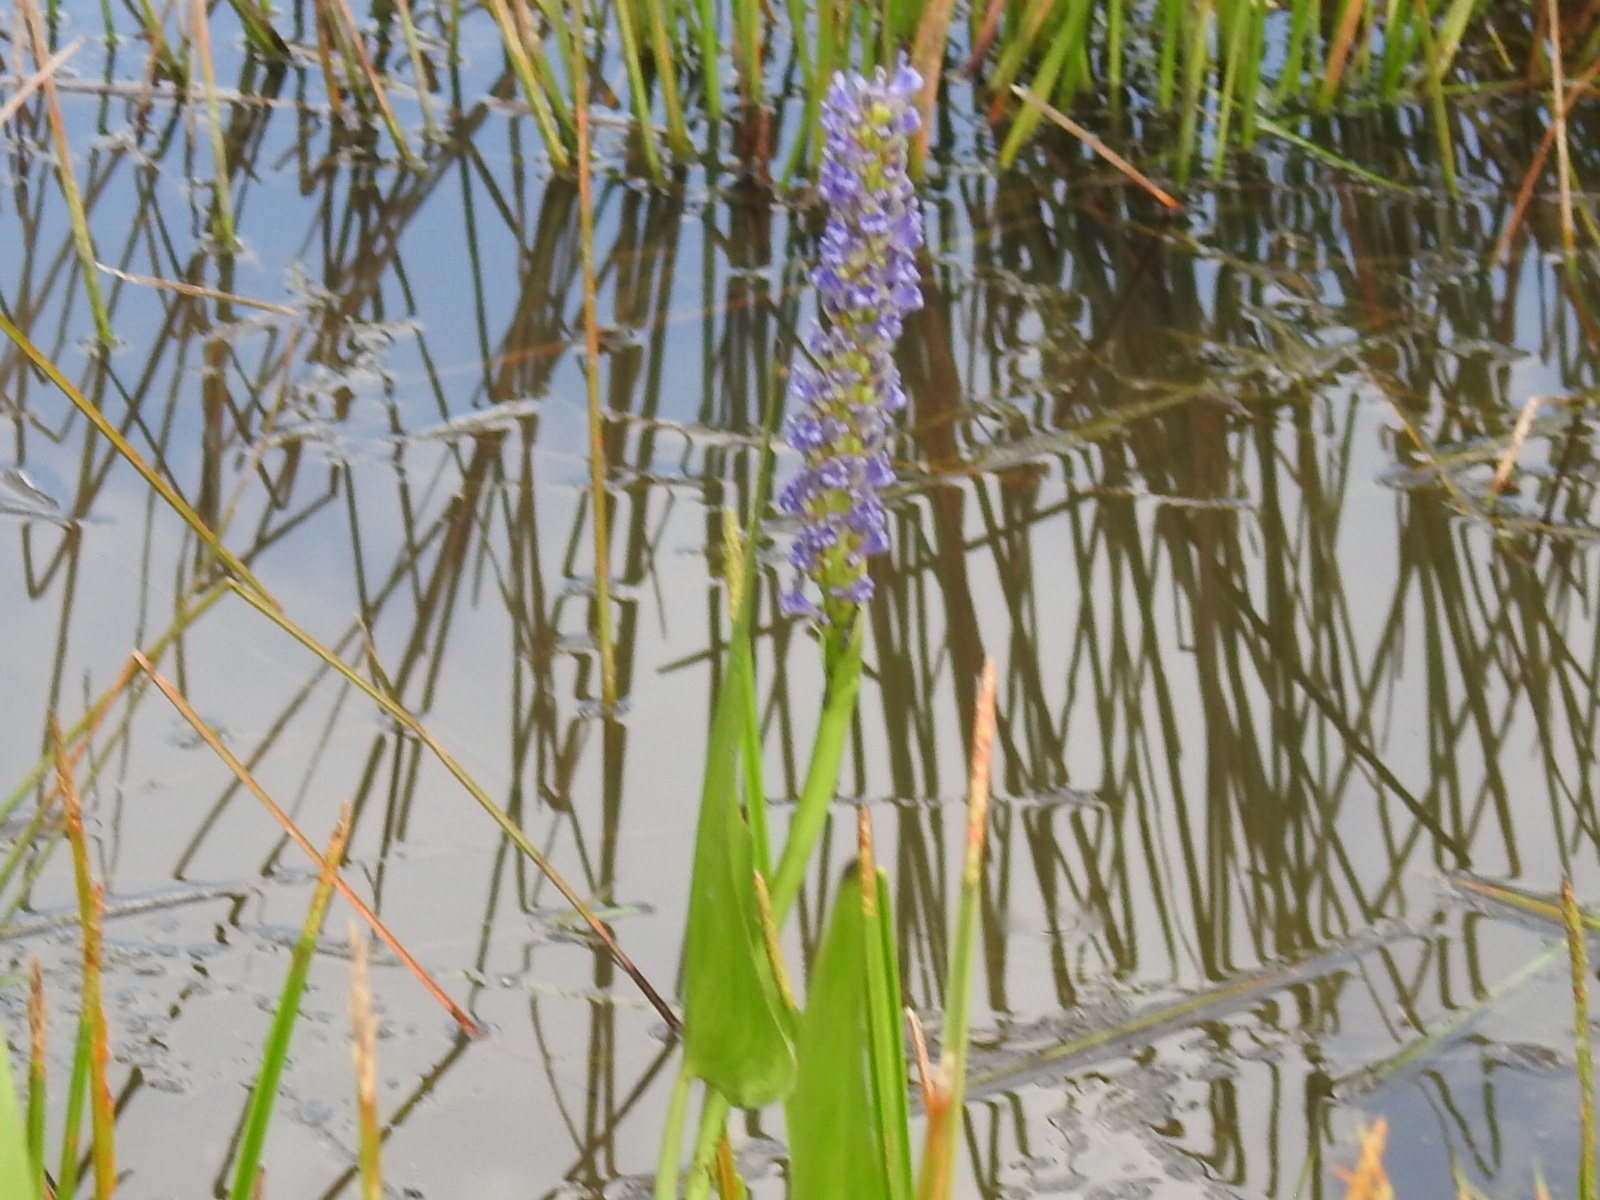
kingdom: Plantae
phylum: Tracheophyta
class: Liliopsida
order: Commelinales
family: Pontederiaceae
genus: Pontederia
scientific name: Pontederia cordata
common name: Pickerelweed
